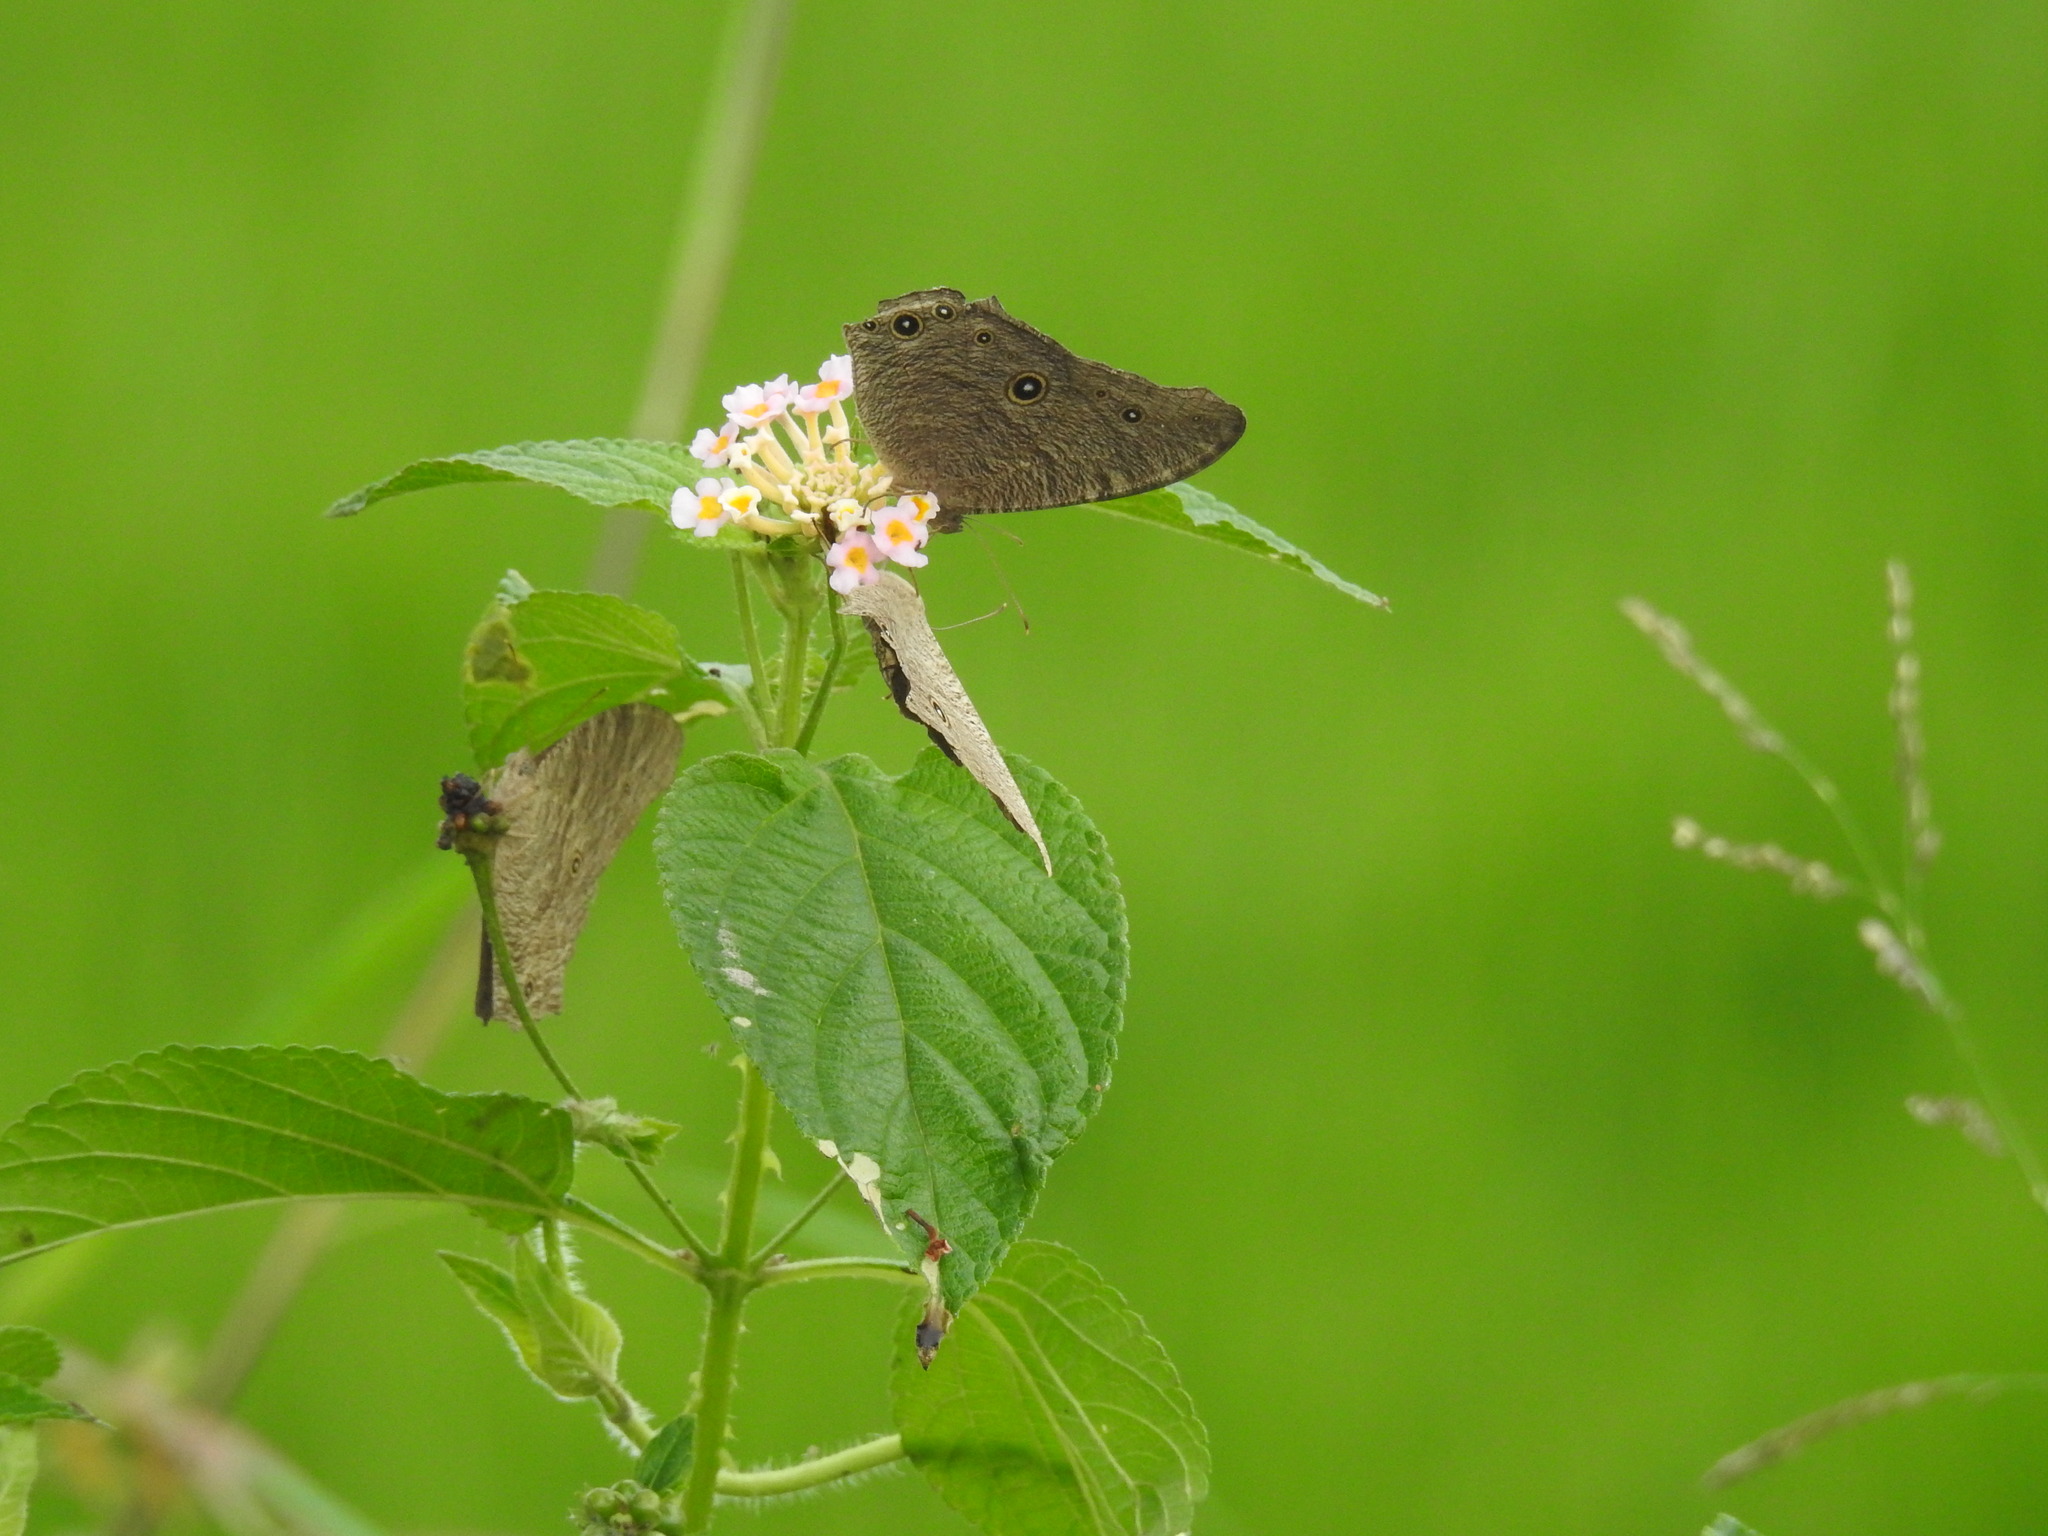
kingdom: Animalia
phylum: Arthropoda
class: Insecta
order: Lepidoptera
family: Nymphalidae
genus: Melanitis
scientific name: Melanitis leda
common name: Twilight brown
